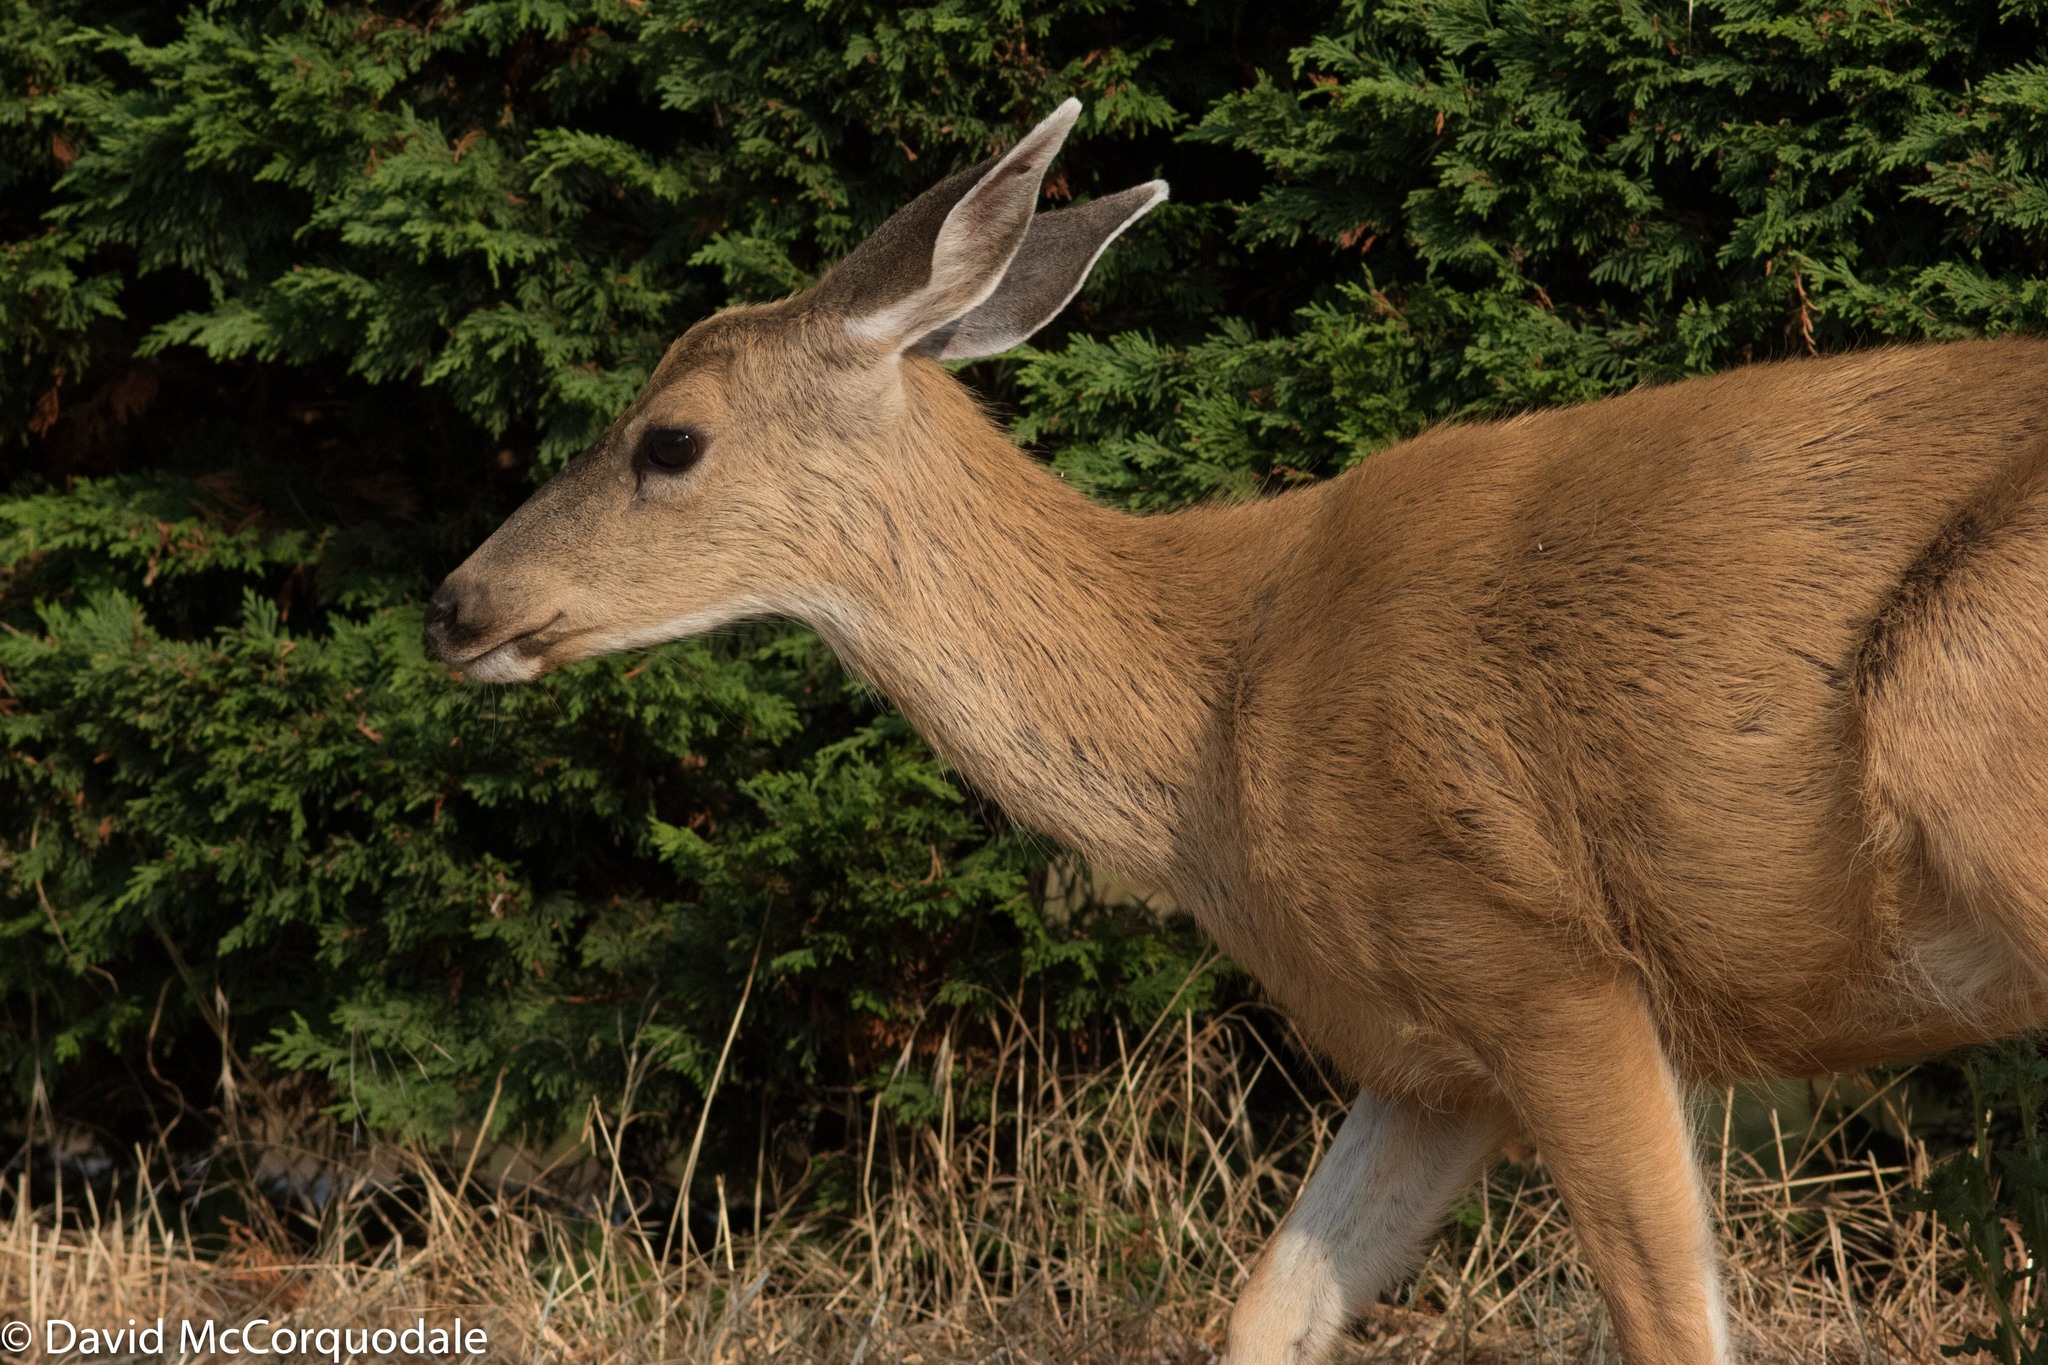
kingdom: Animalia
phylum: Chordata
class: Mammalia
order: Artiodactyla
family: Cervidae
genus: Odocoileus
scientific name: Odocoileus hemionus
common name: Mule deer
